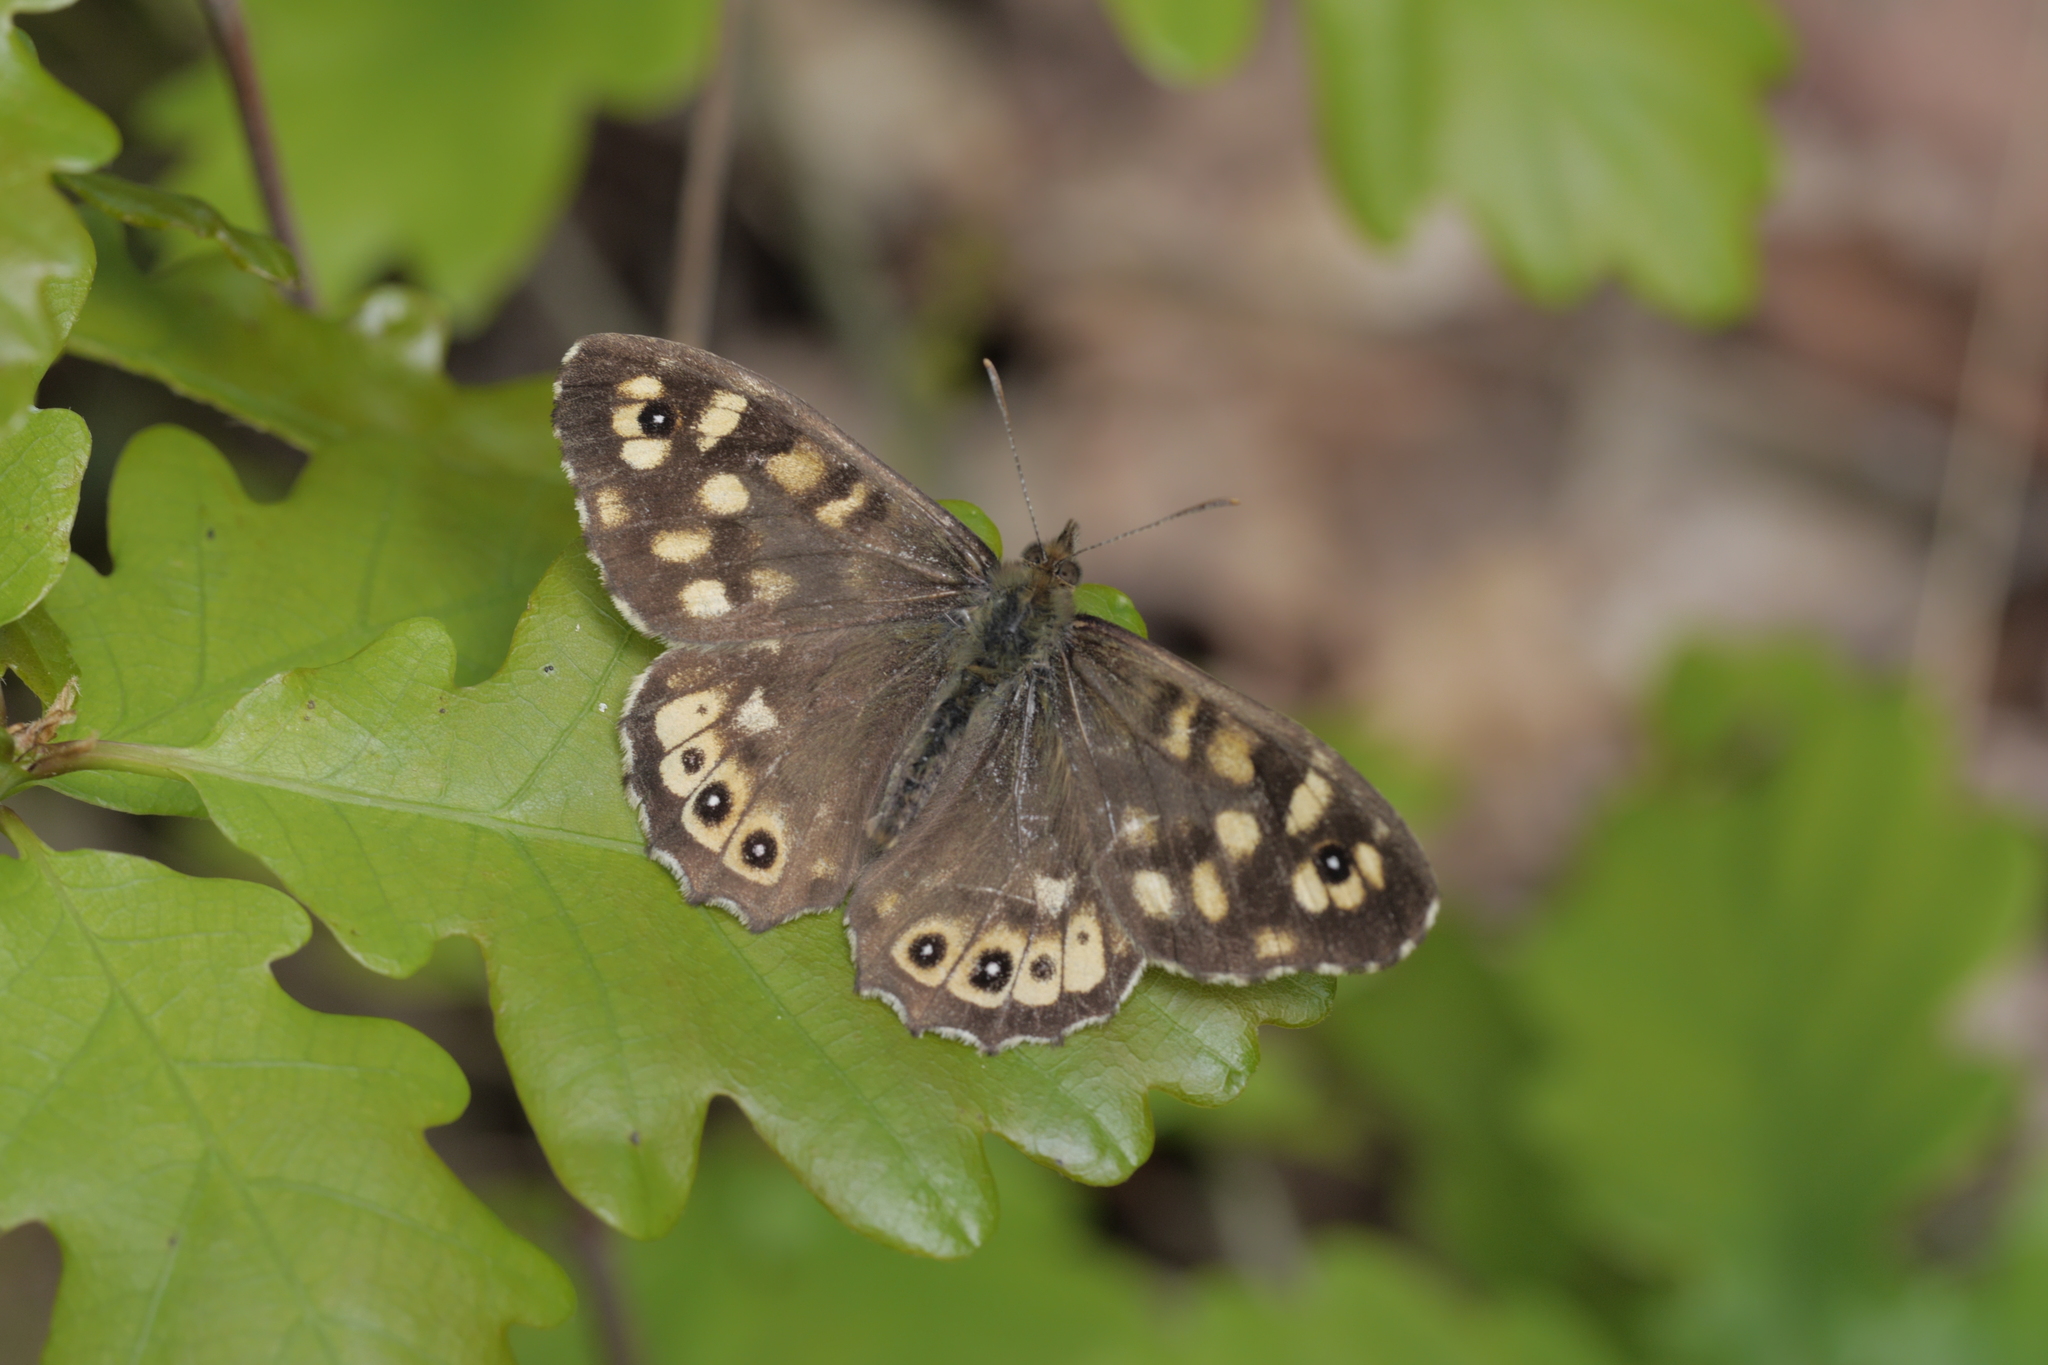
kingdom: Animalia
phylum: Arthropoda
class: Insecta
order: Lepidoptera
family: Nymphalidae
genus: Pararge
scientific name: Pararge aegeria
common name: Speckled wood
